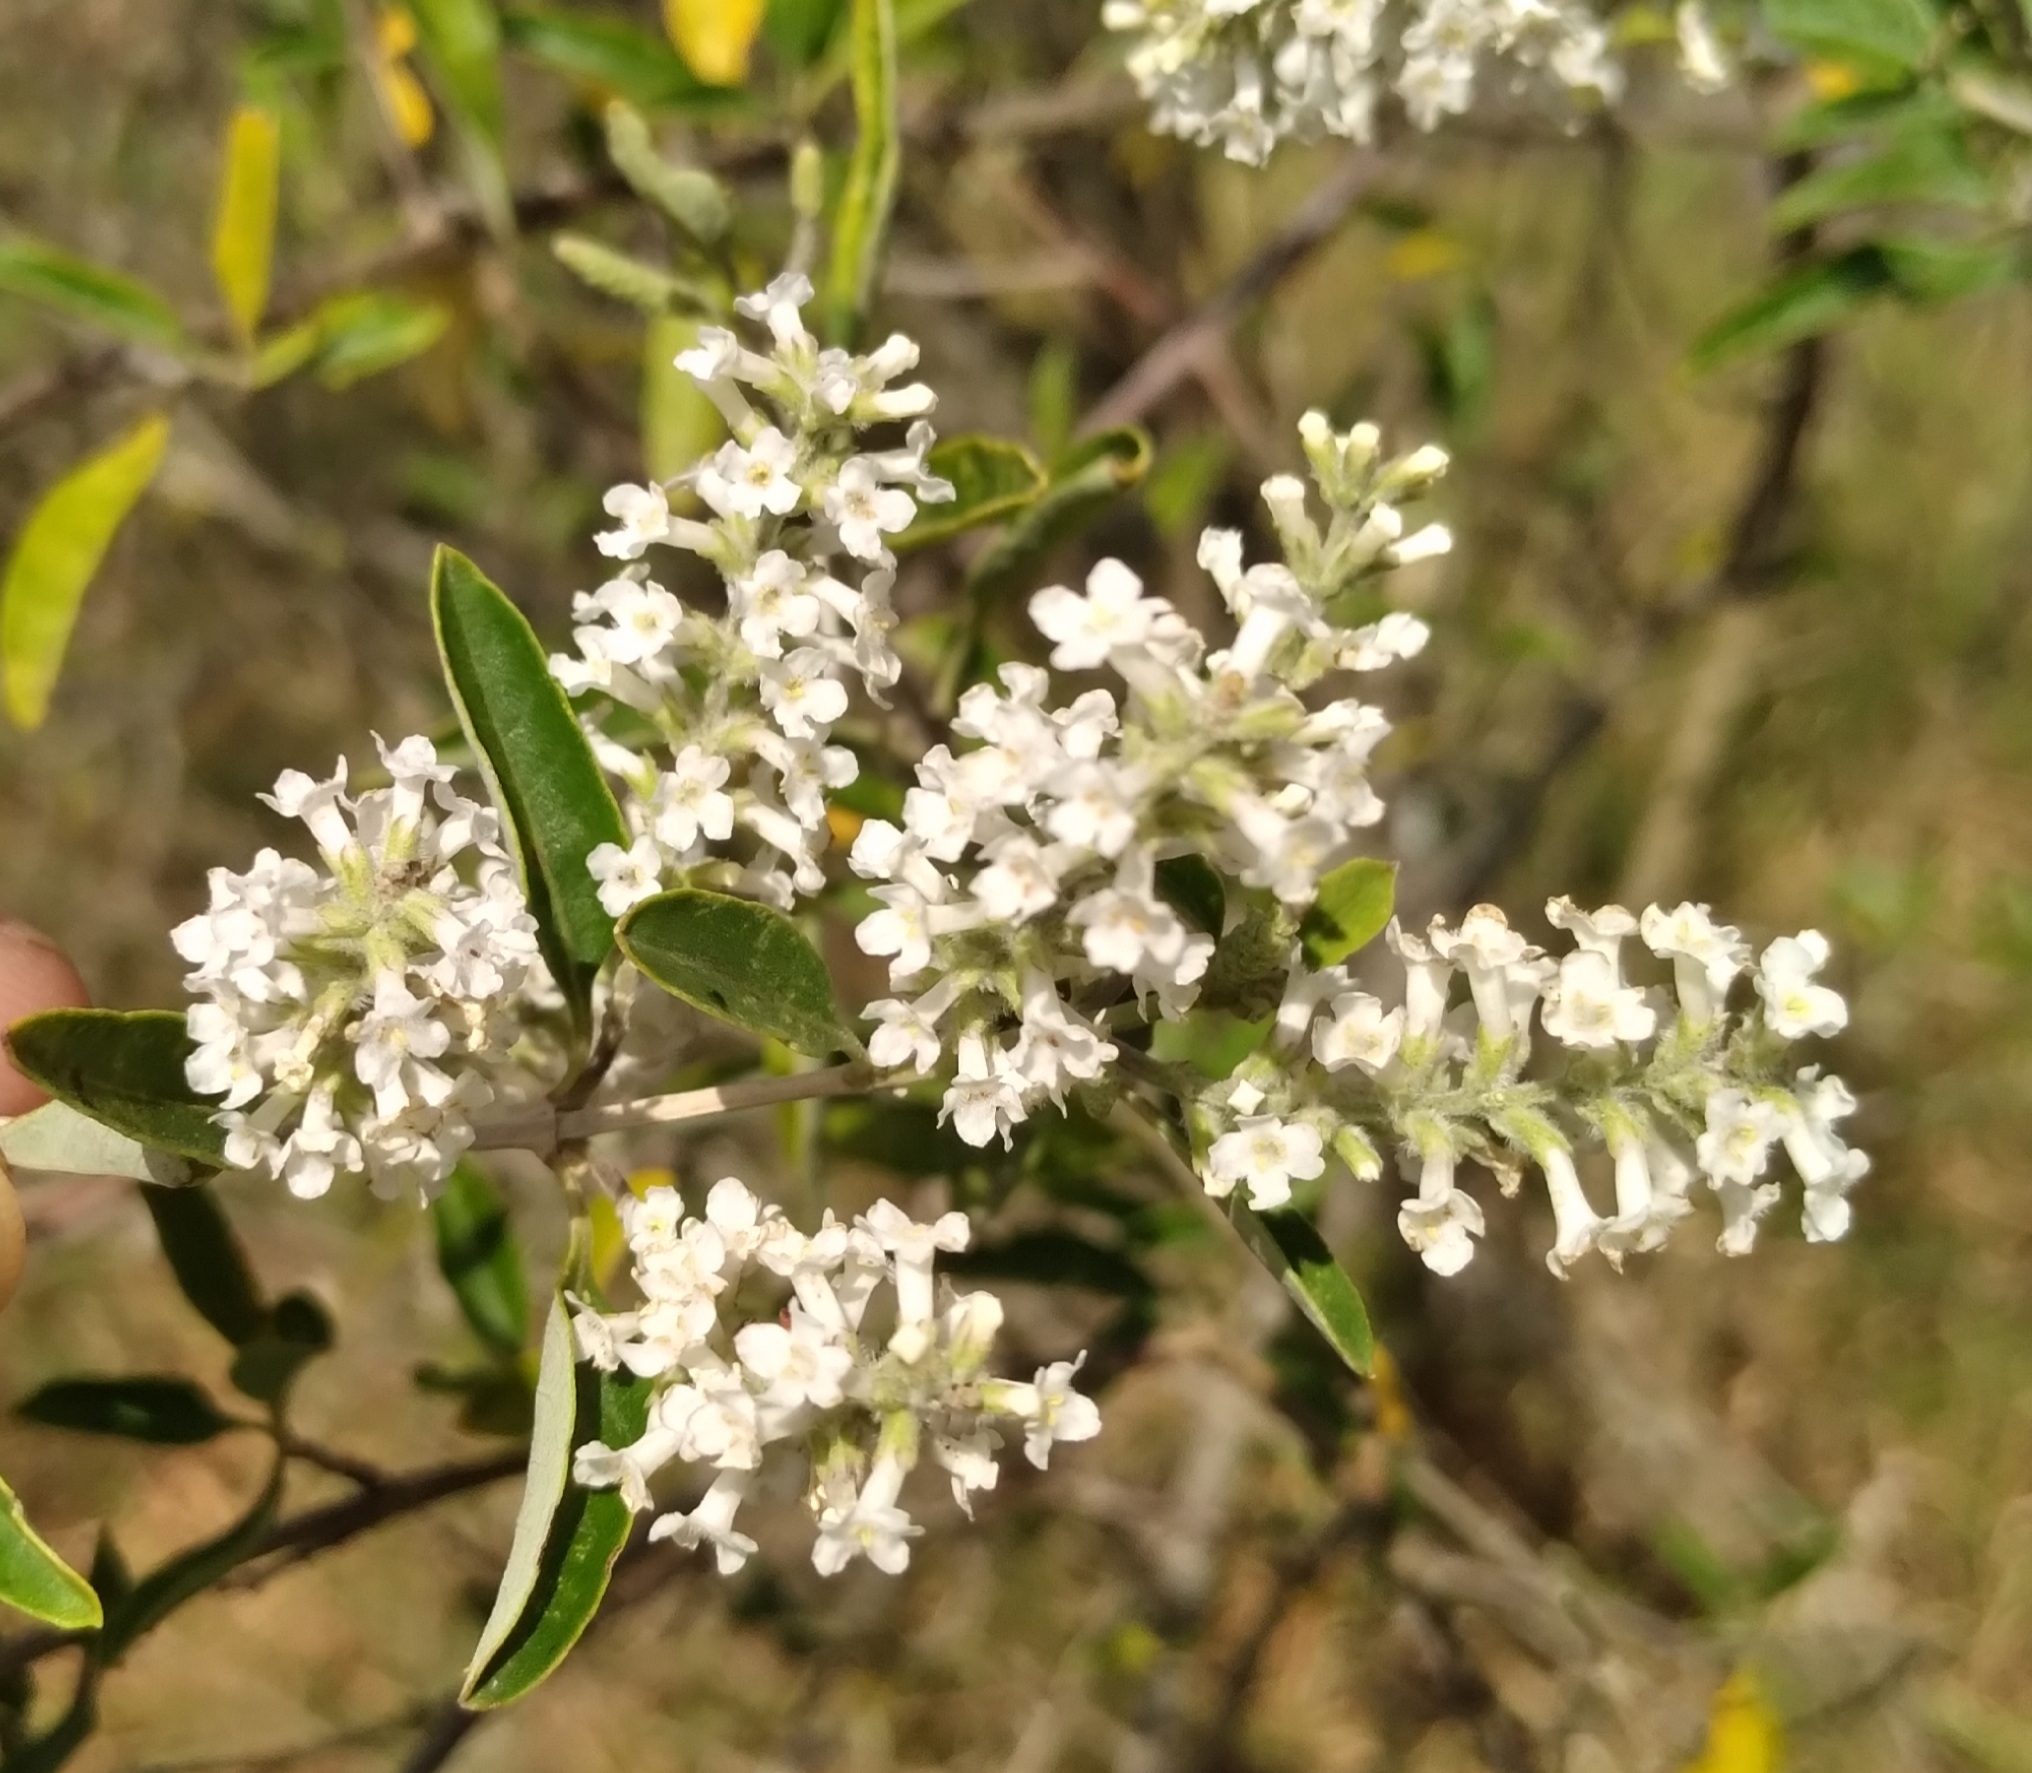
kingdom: Plantae
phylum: Tracheophyta
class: Magnoliopsida
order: Lamiales
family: Verbenaceae
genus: Aloysia
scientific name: Aloysia gratissima
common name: Common bee-brush
